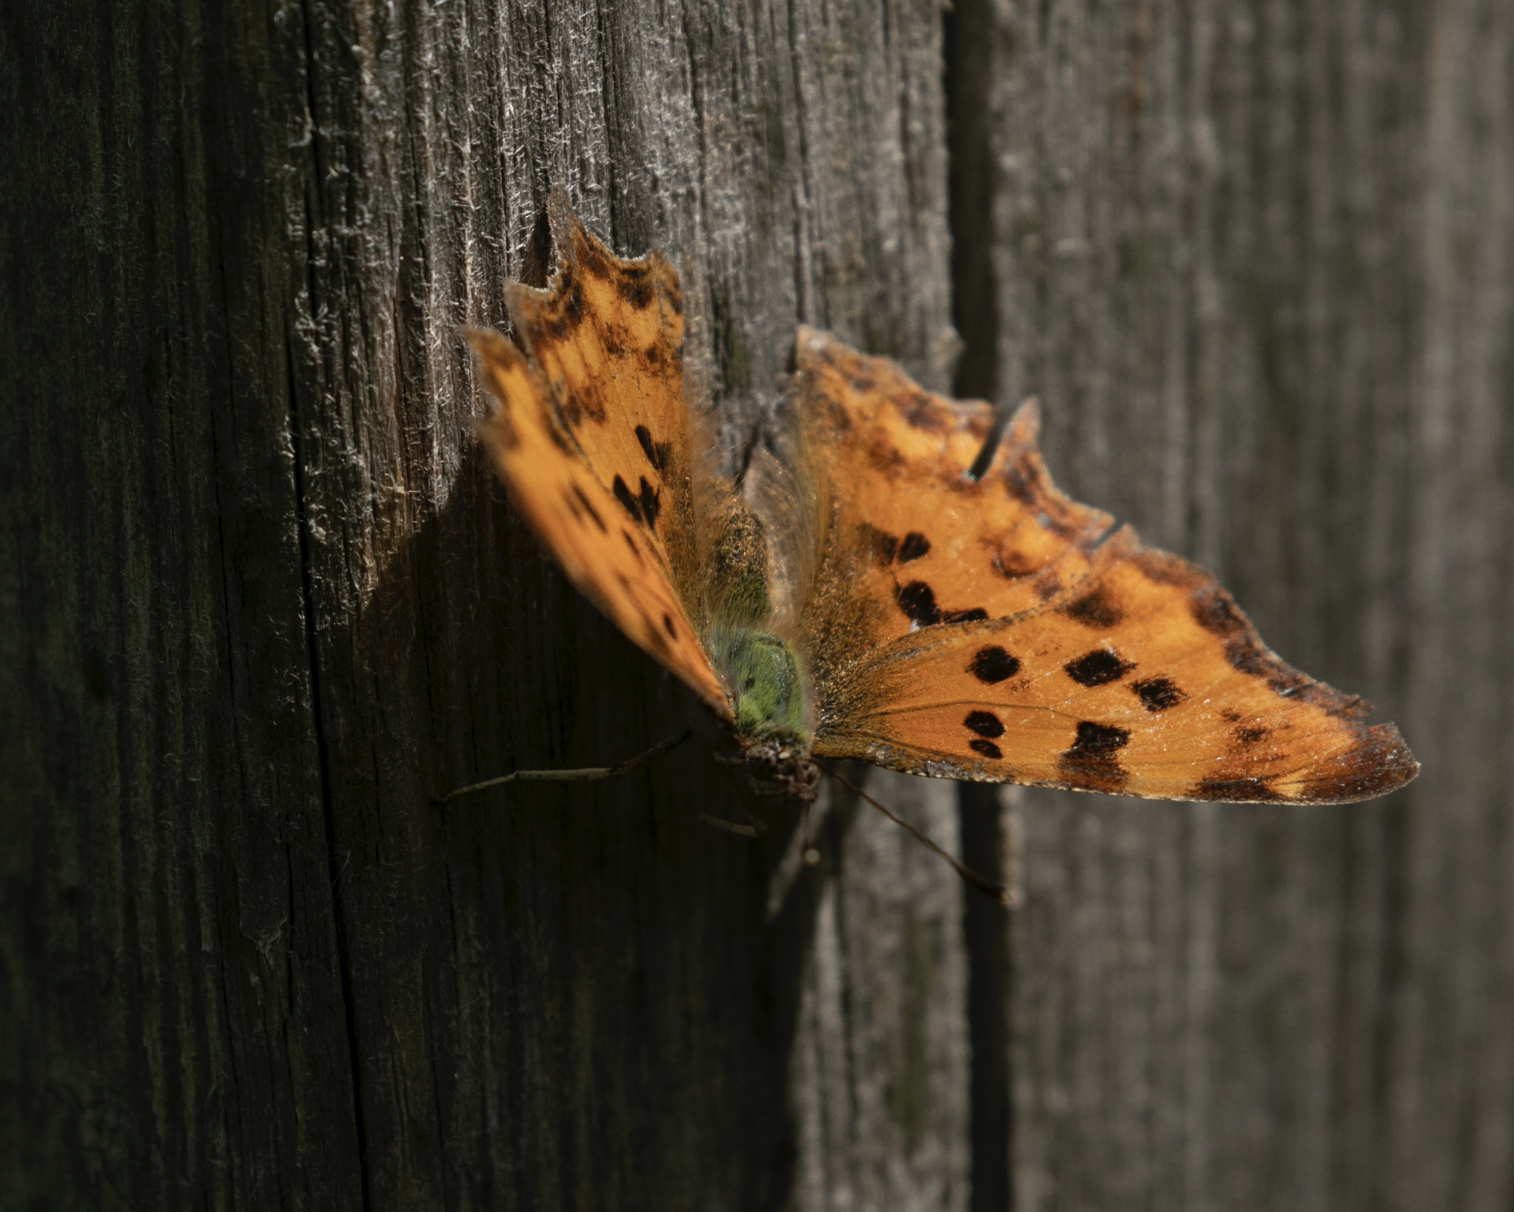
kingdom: Animalia
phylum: Arthropoda
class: Insecta
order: Lepidoptera
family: Nymphalidae
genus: Polygonia
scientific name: Polygonia c-album
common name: Comma
